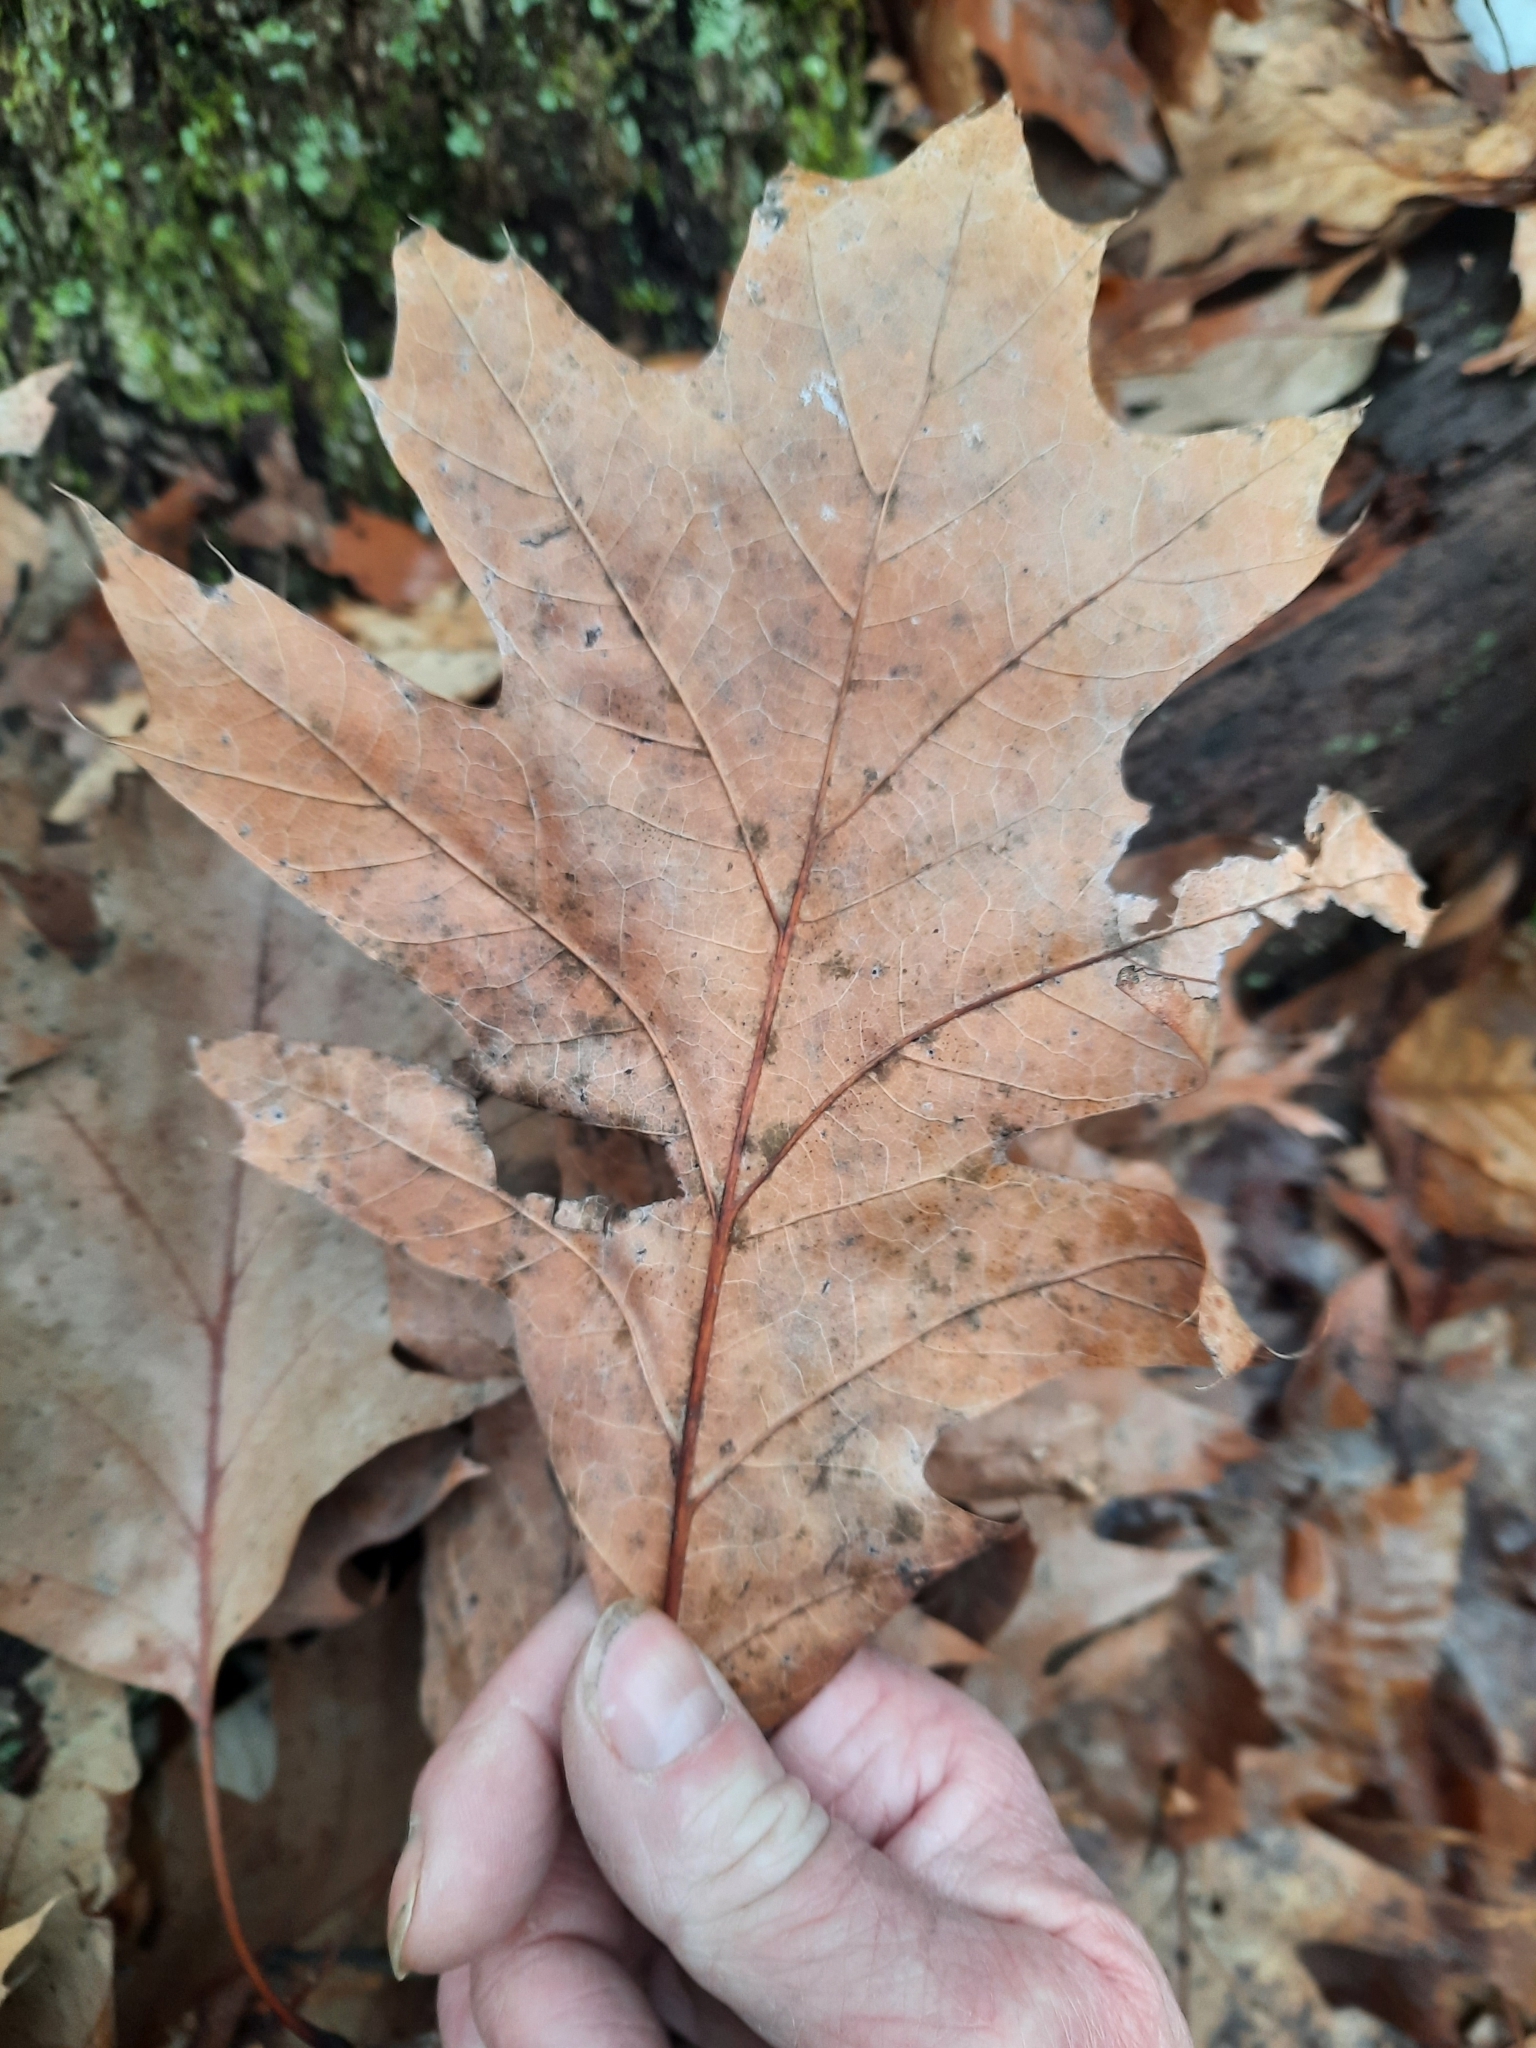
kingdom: Plantae
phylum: Tracheophyta
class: Magnoliopsida
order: Fagales
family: Fagaceae
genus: Quercus
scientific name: Quercus velutina
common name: Black oak
